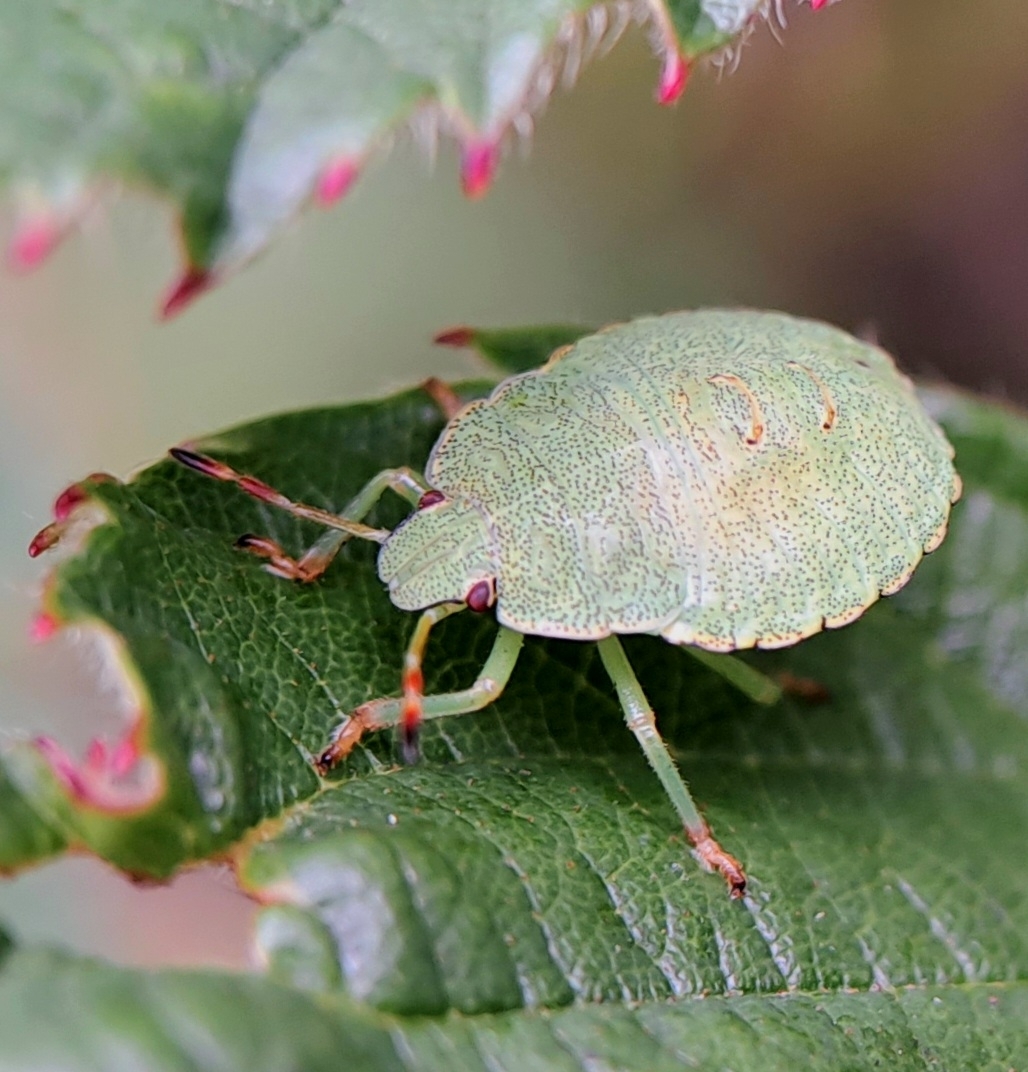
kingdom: Animalia
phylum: Arthropoda
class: Insecta
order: Hemiptera
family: Pentatomidae
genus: Palomena
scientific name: Palomena prasina
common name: Green shieldbug
